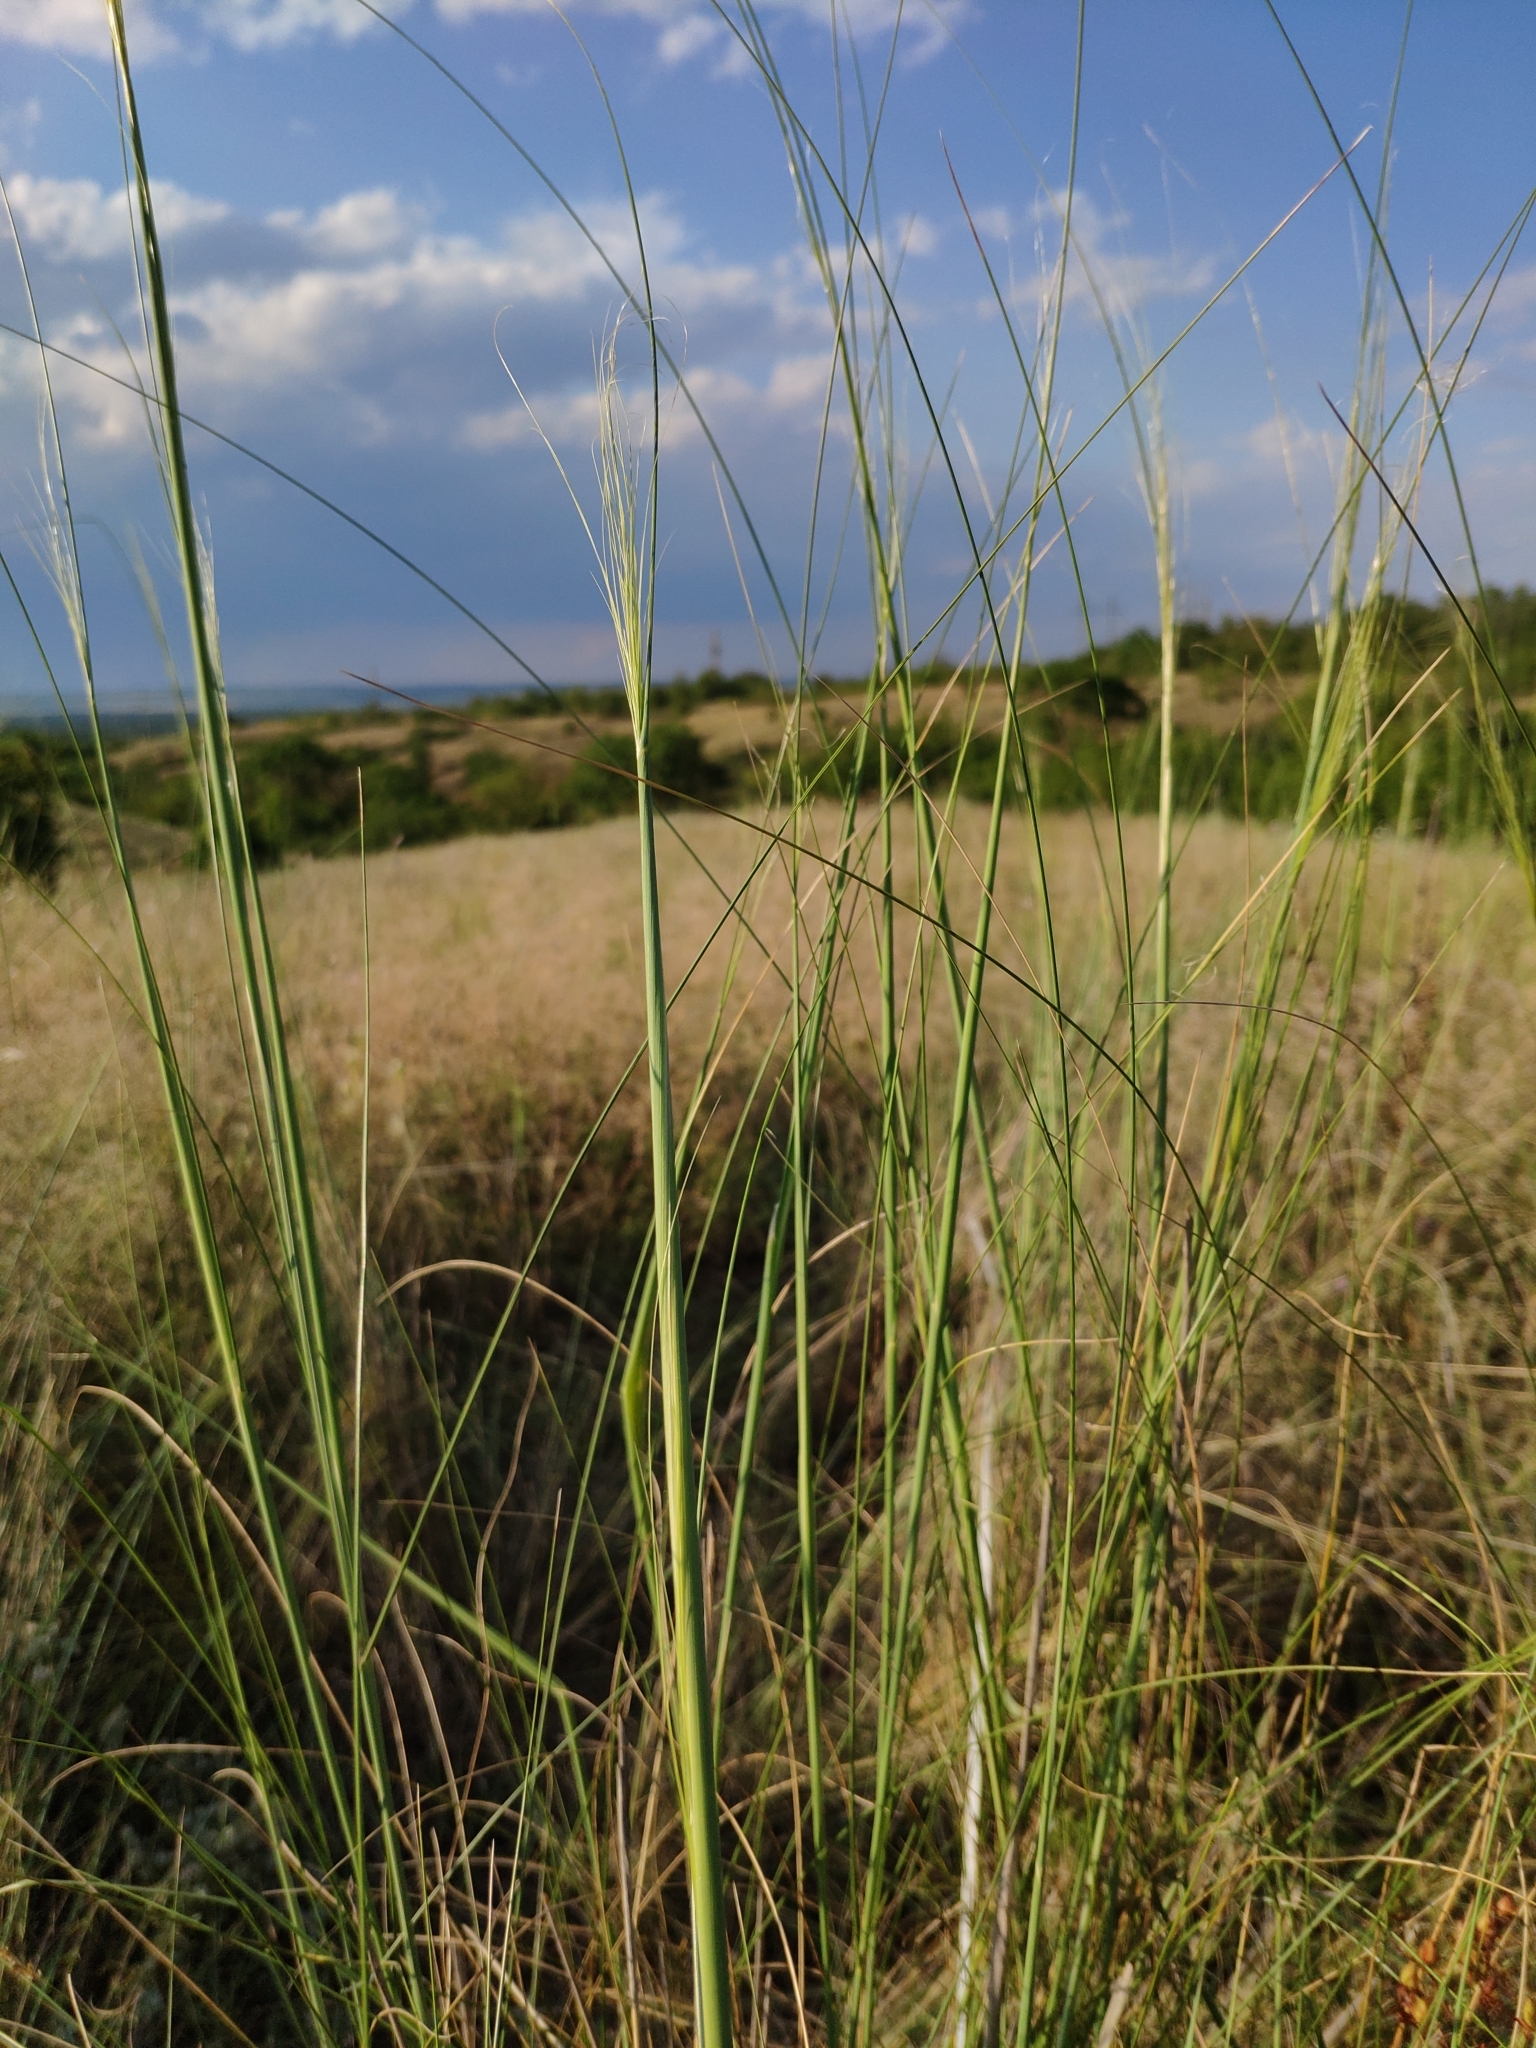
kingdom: Plantae
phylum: Tracheophyta
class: Liliopsida
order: Poales
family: Poaceae
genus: Stipa
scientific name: Stipa capillata
